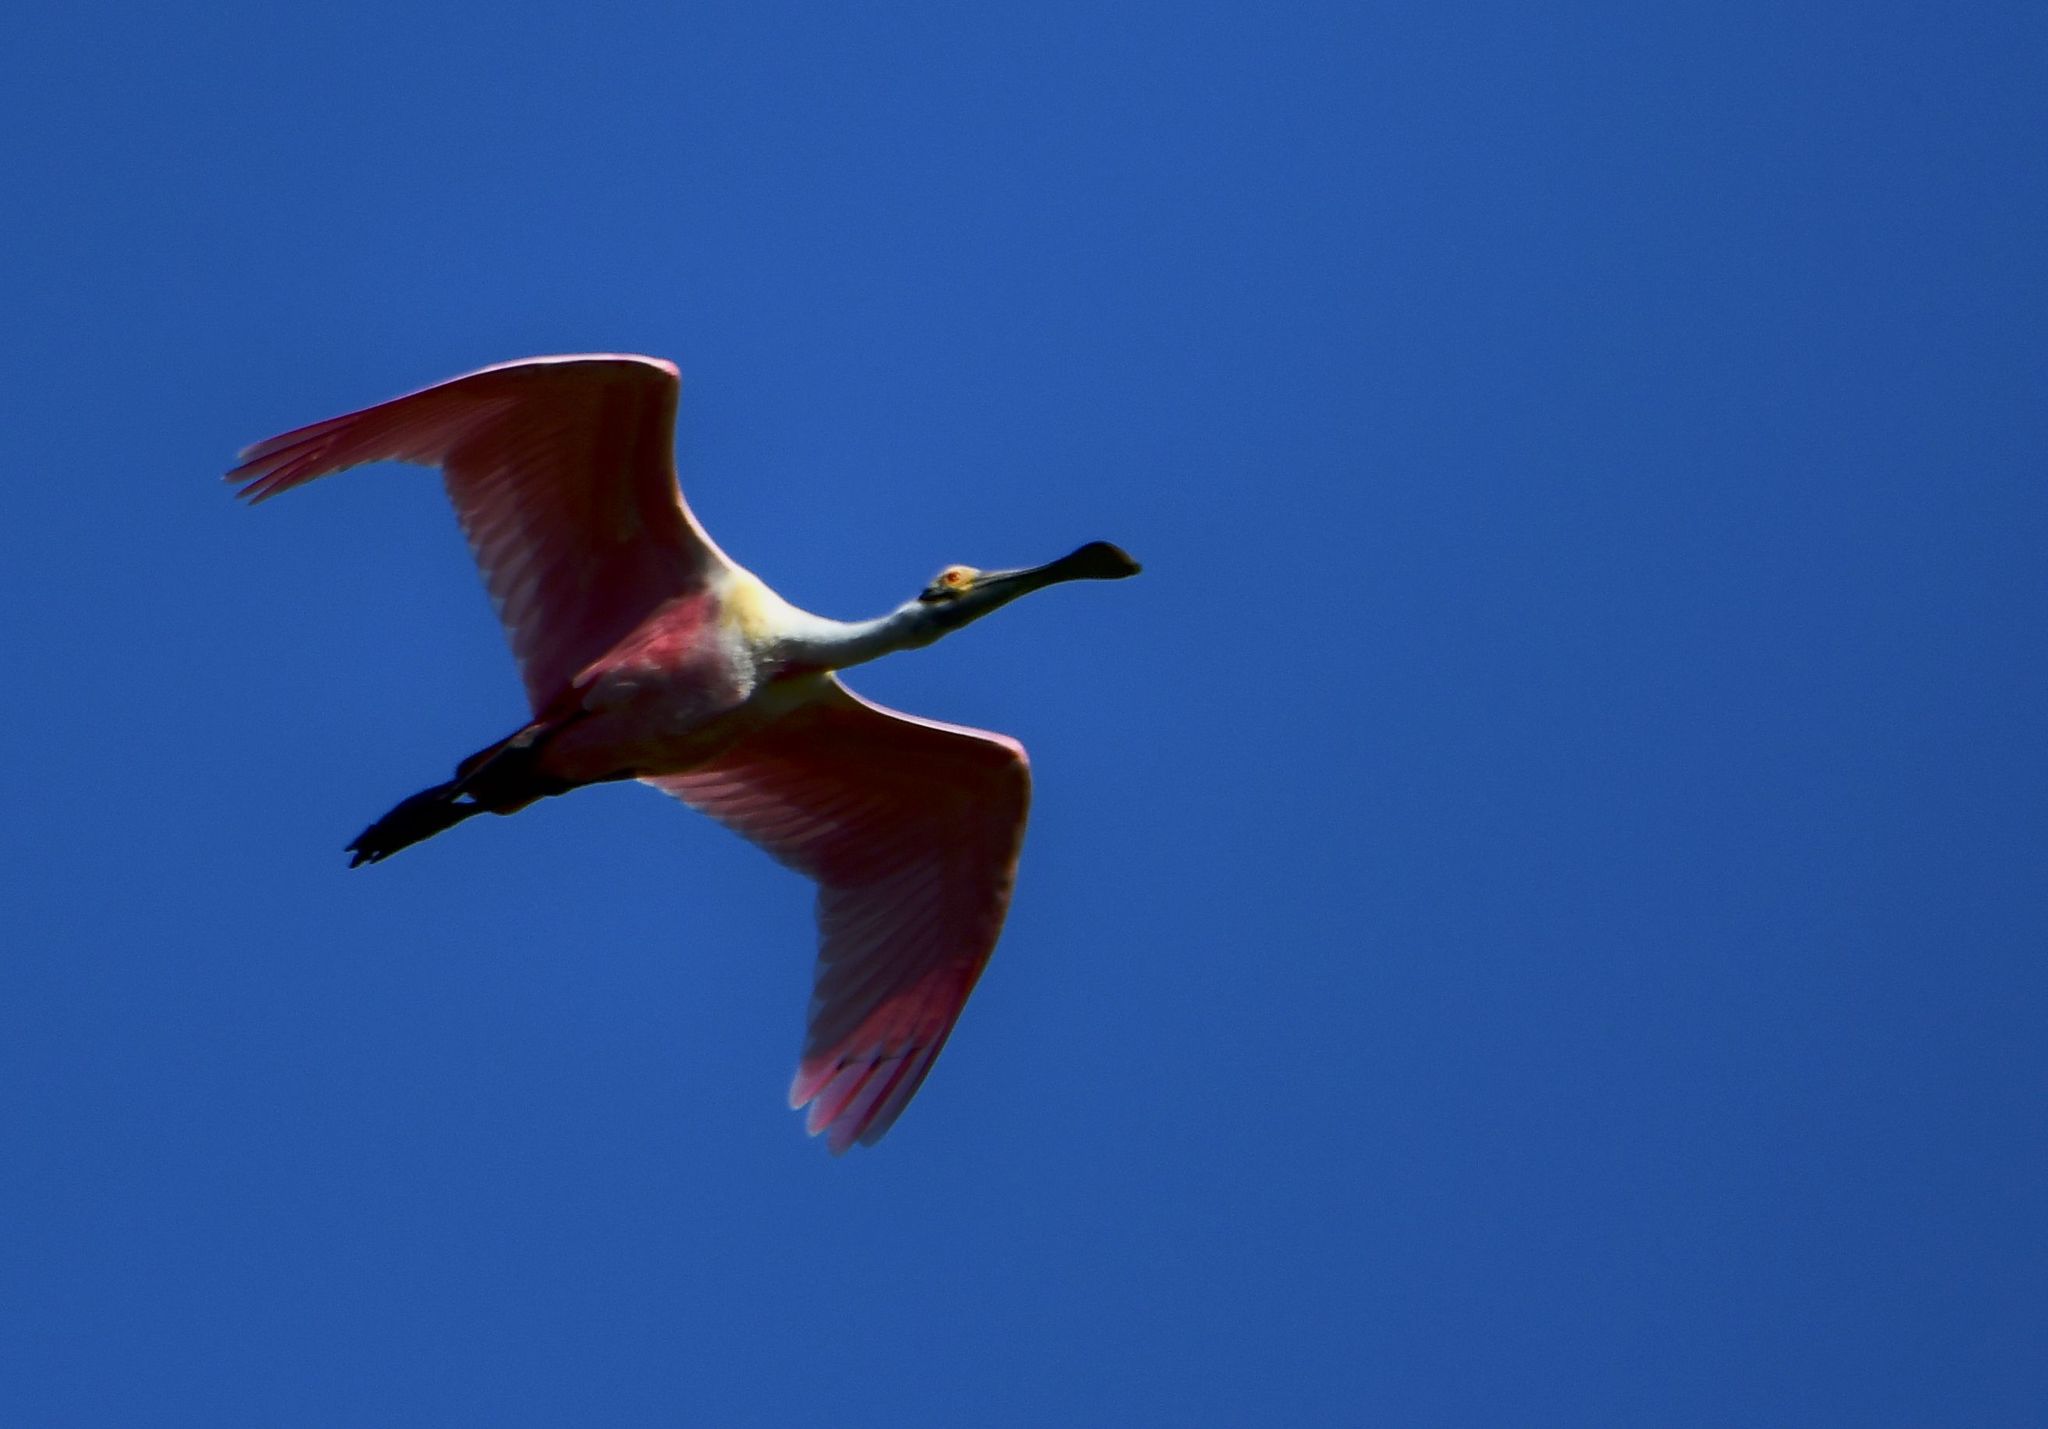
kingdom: Animalia
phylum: Chordata
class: Aves
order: Pelecaniformes
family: Threskiornithidae
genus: Platalea
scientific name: Platalea ajaja
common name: Roseate spoonbill
